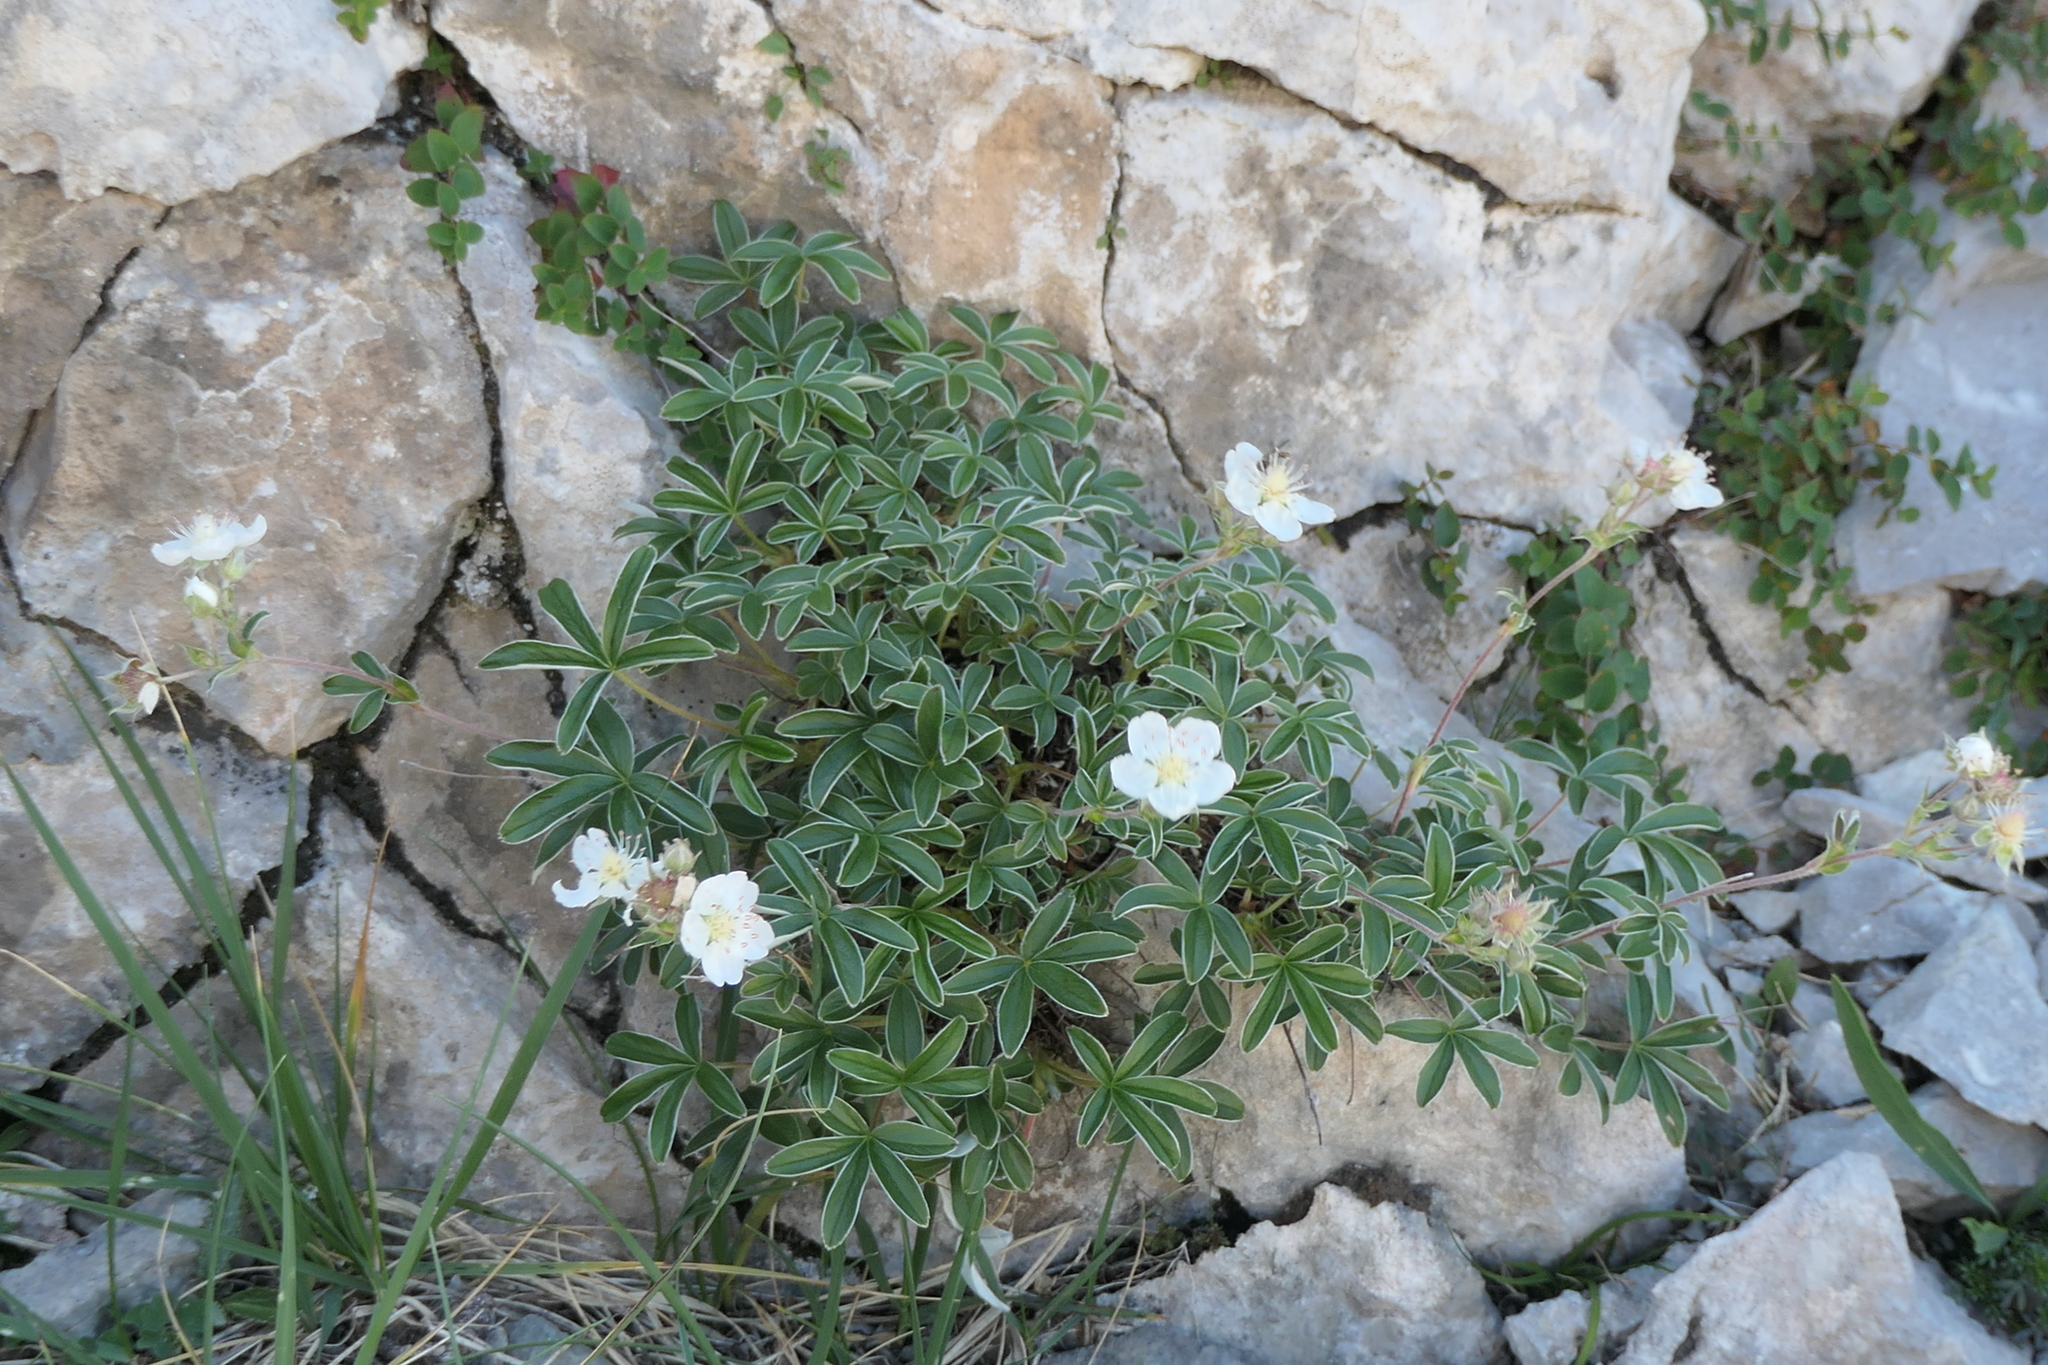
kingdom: Plantae
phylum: Tracheophyta
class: Magnoliopsida
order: Rosales
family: Rosaceae
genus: Potentilla
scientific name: Potentilla alchimilloides
